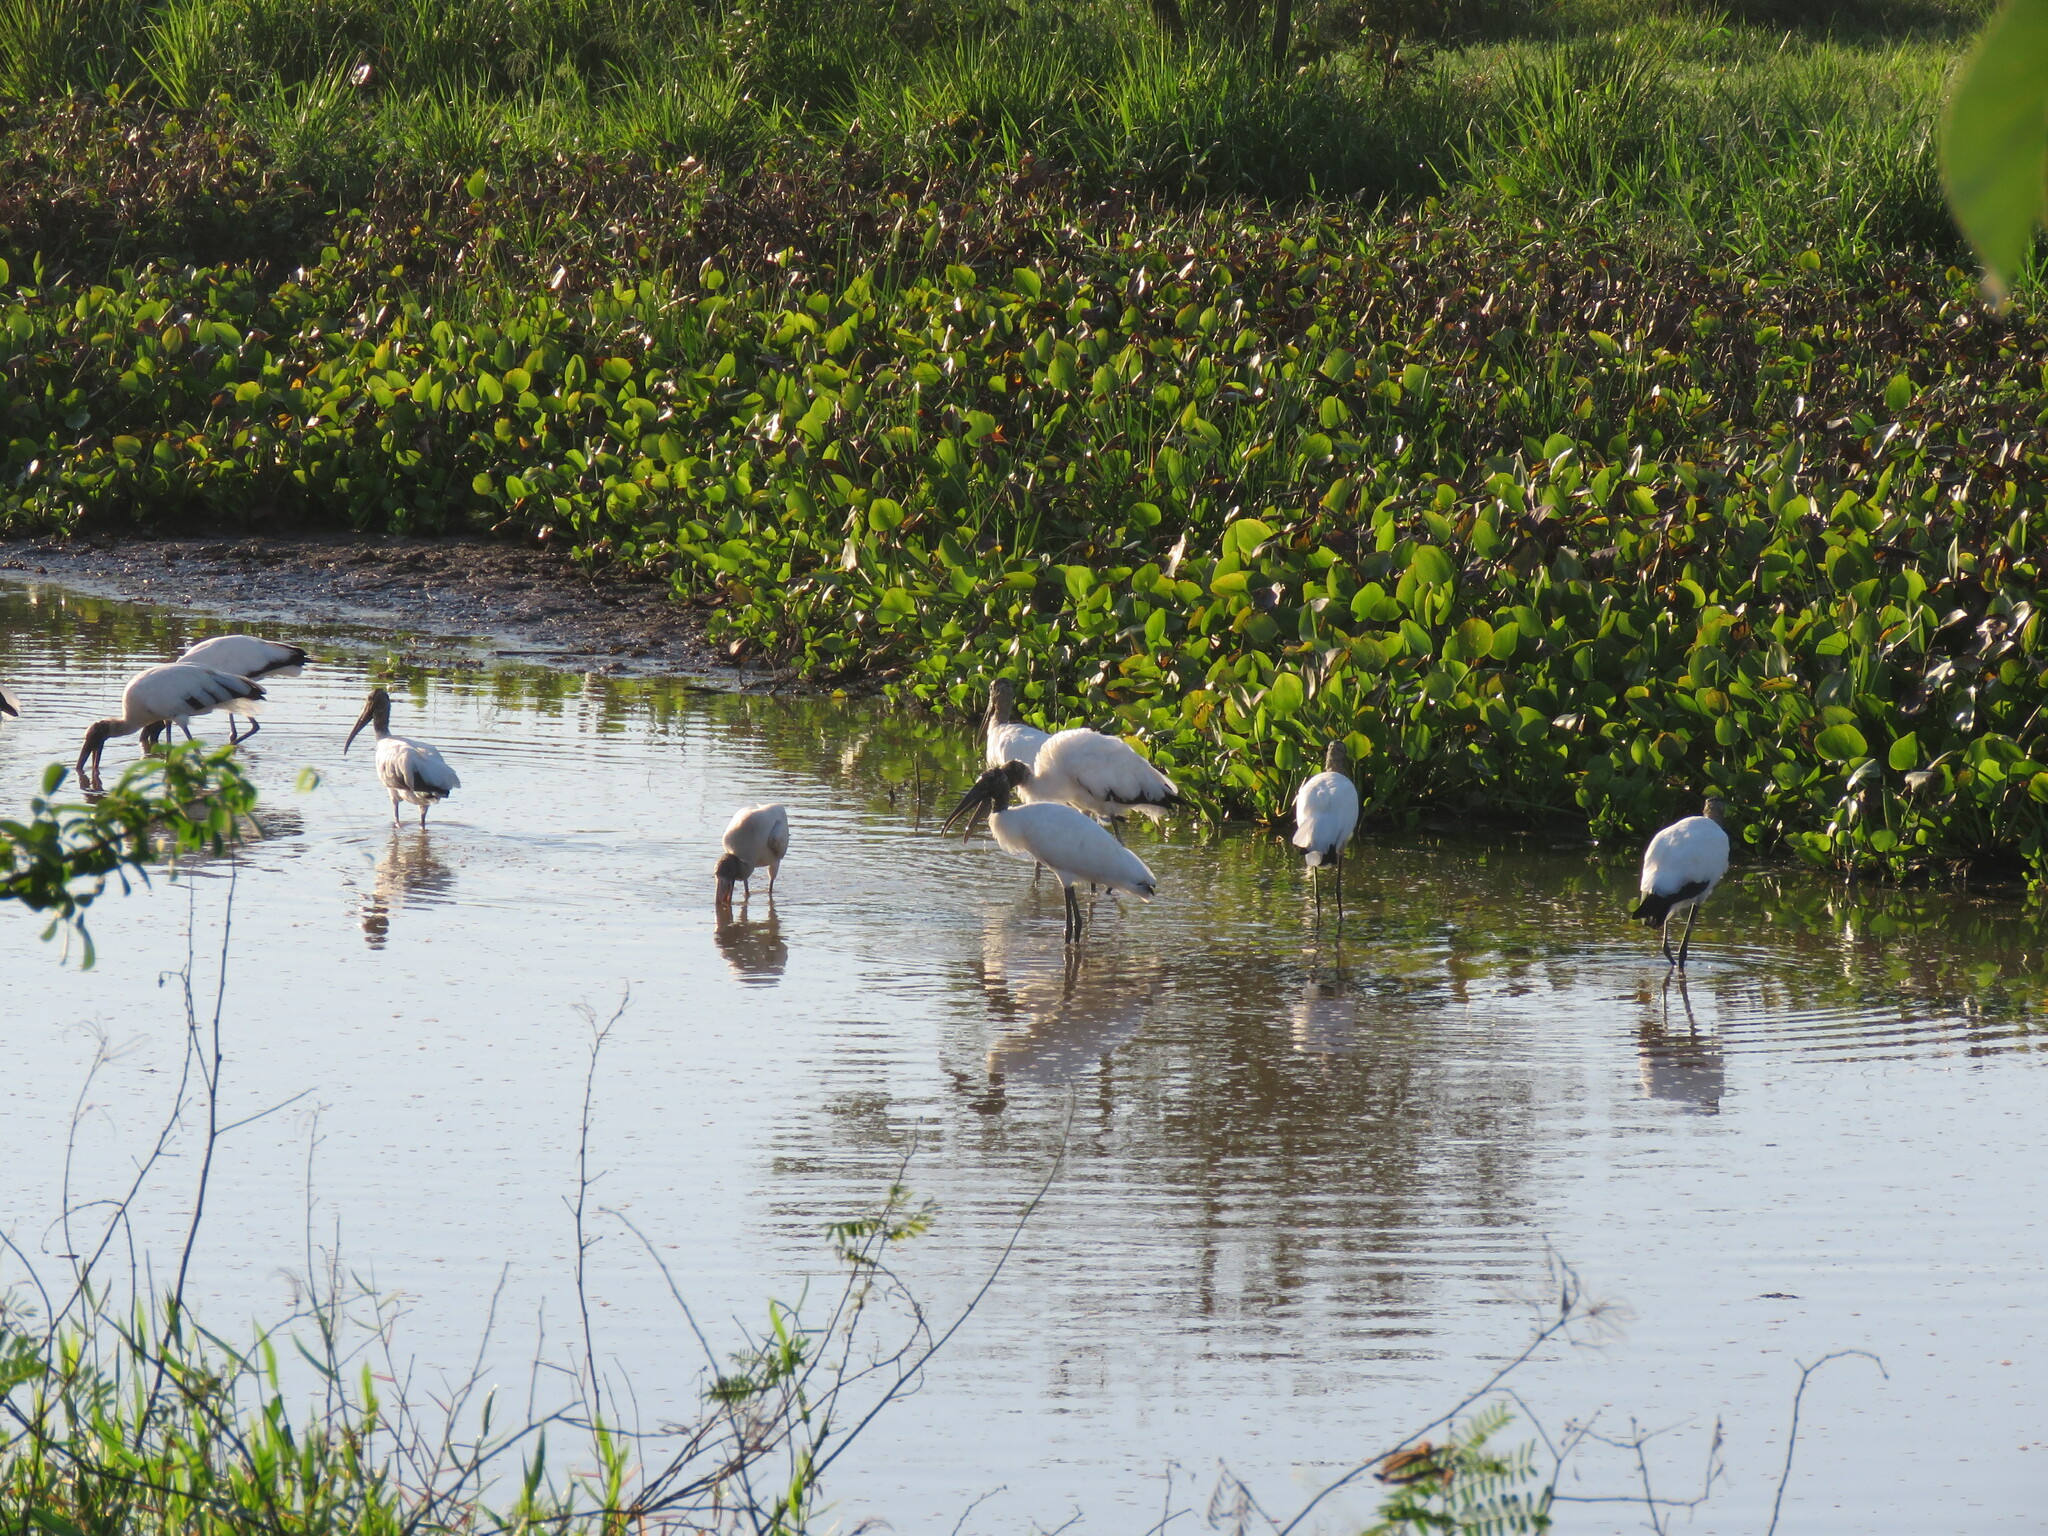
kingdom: Animalia
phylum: Chordata
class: Aves
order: Ciconiiformes
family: Ciconiidae
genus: Mycteria
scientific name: Mycteria americana
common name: Wood stork
